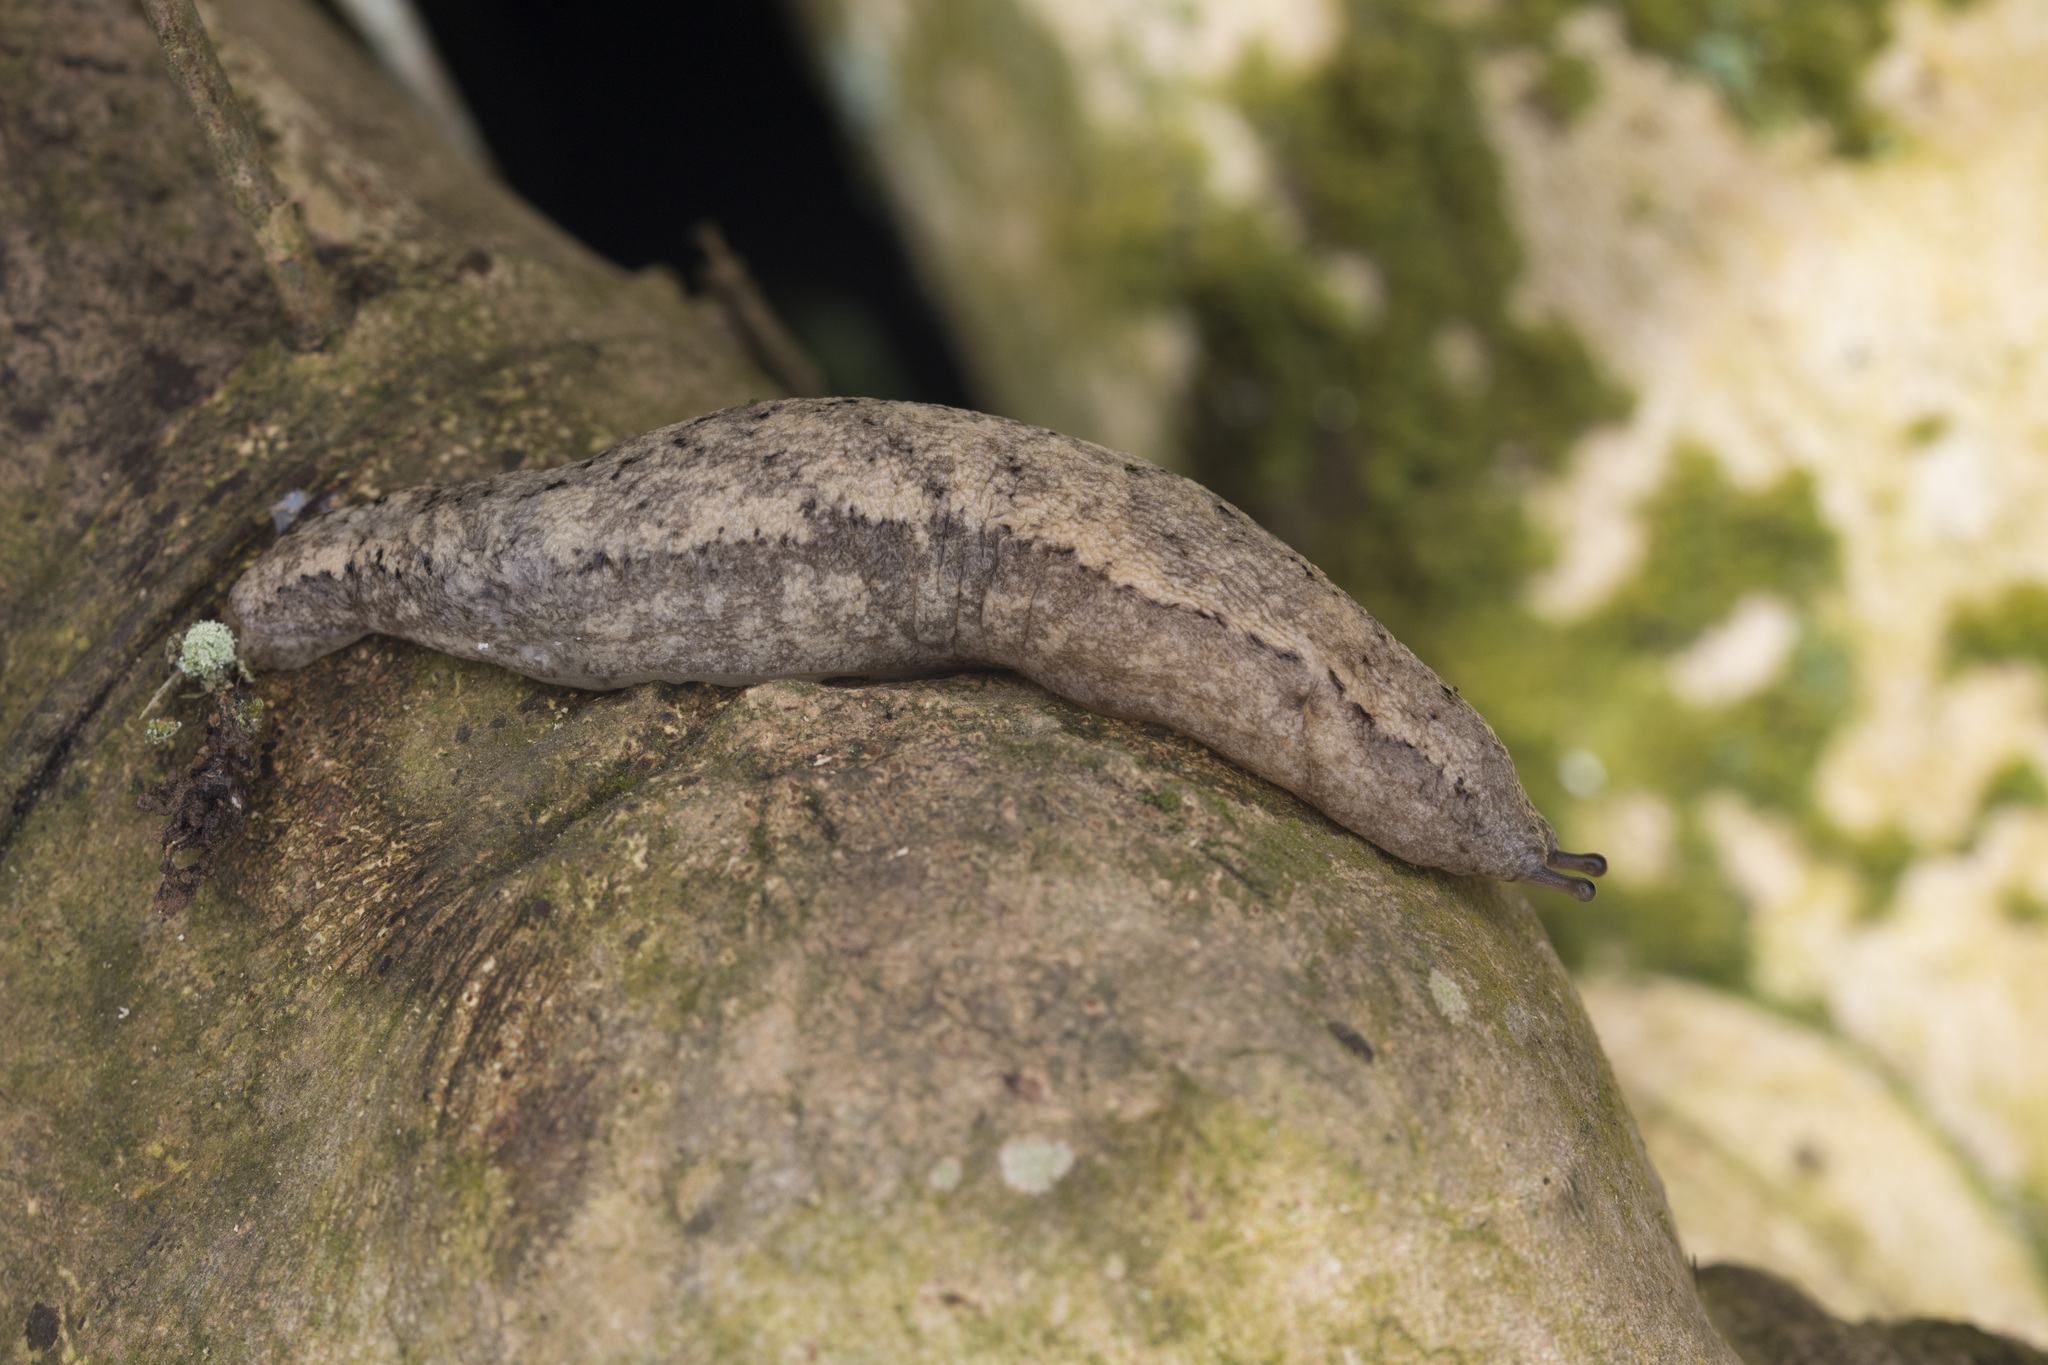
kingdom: Animalia
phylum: Mollusca
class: Gastropoda
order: Stylommatophora
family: Philomycidae
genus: Meghimatium
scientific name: Meghimatium baoshanense
